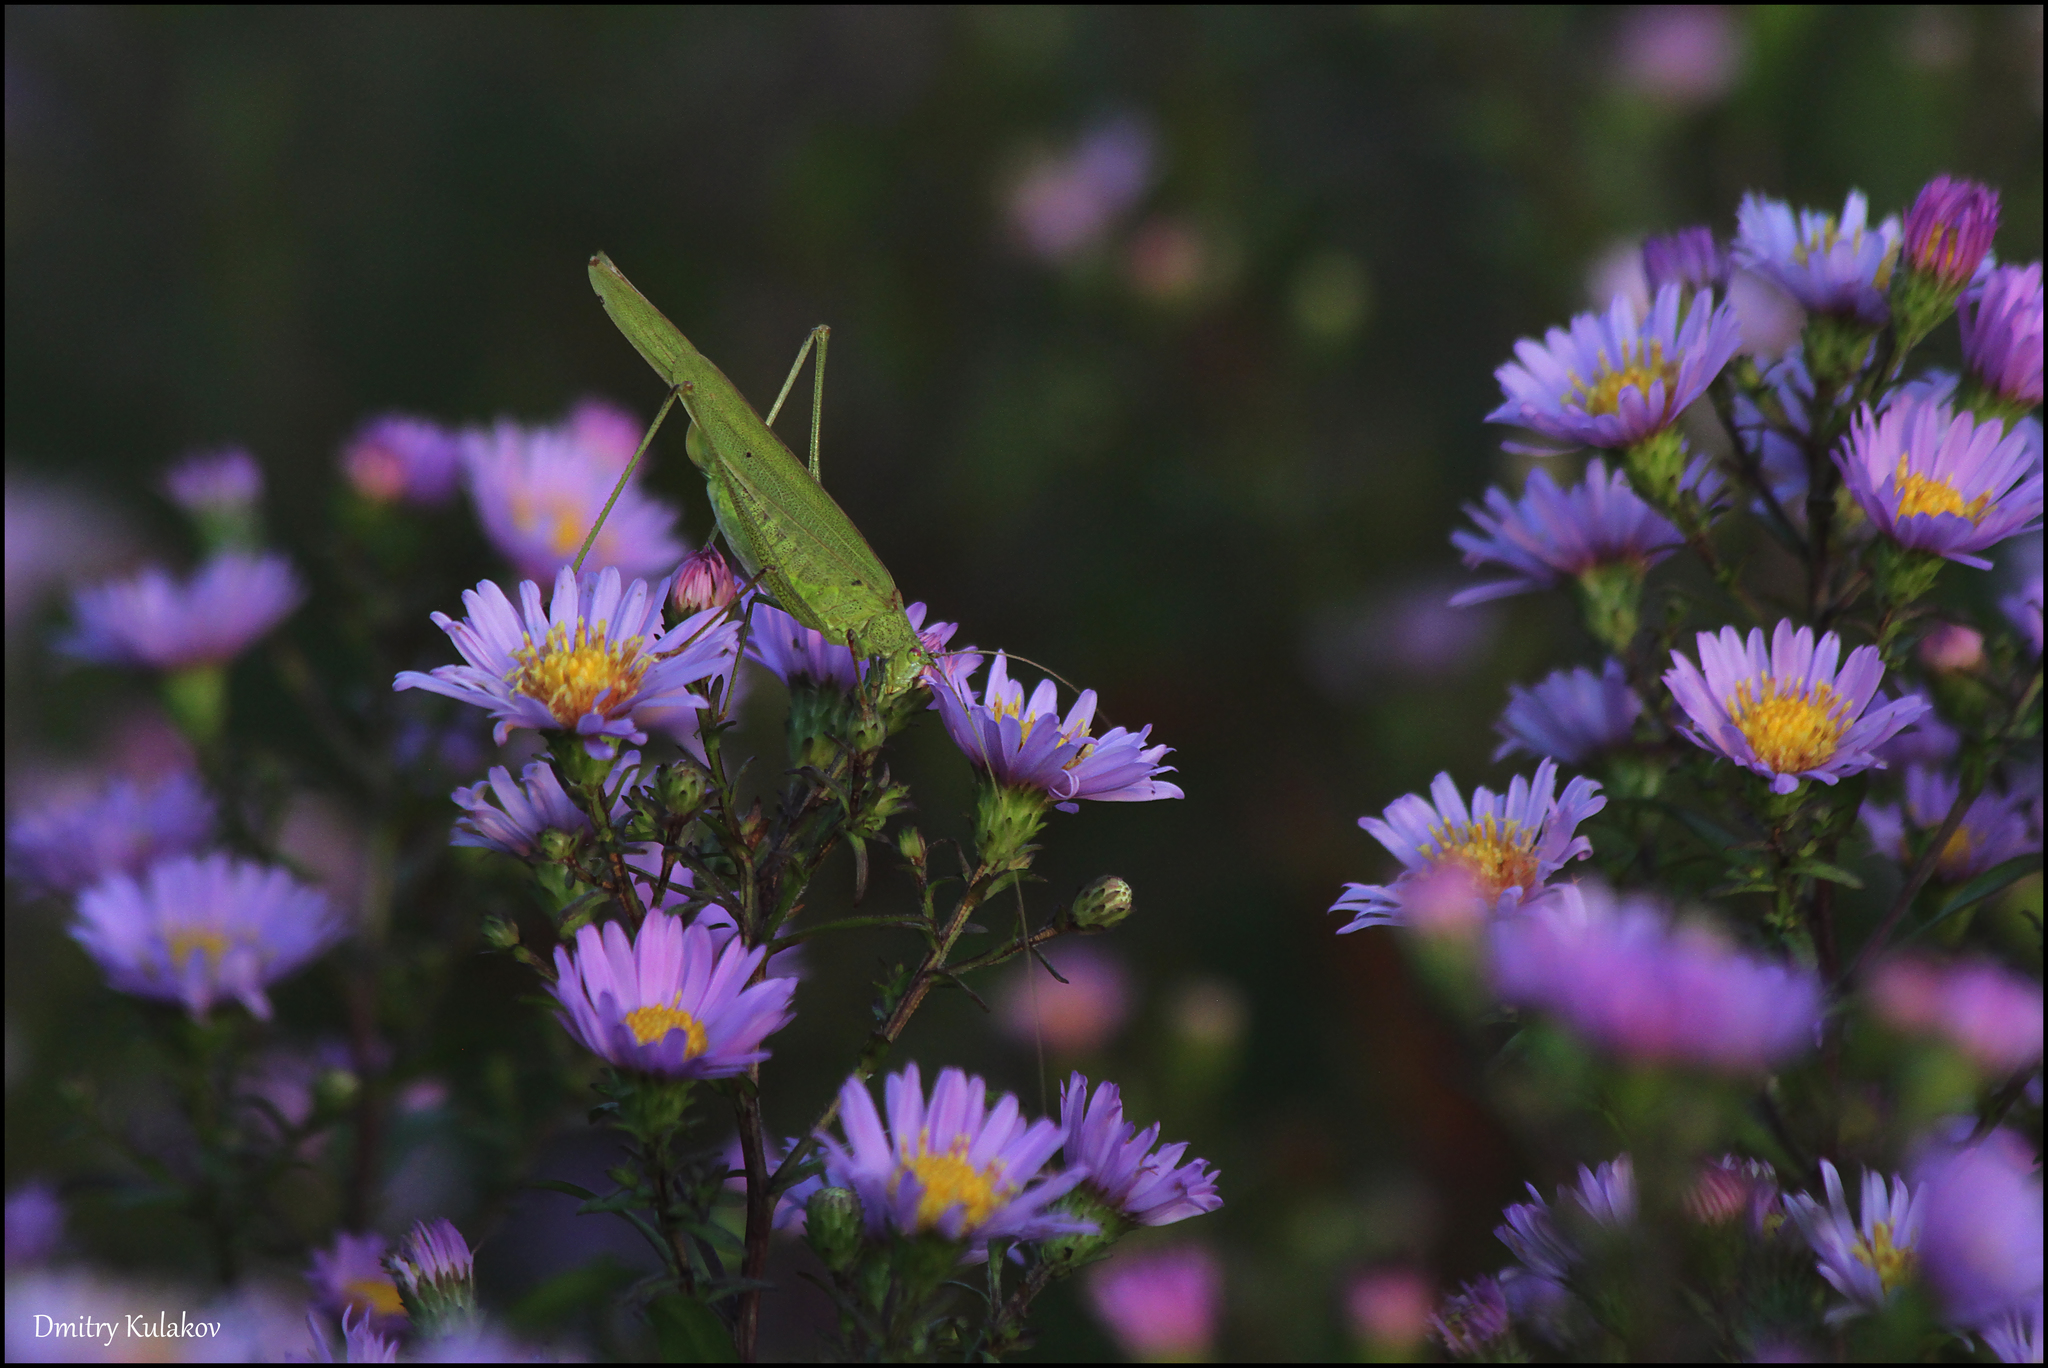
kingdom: Animalia
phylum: Arthropoda
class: Insecta
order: Orthoptera
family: Tettigoniidae
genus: Phaneroptera
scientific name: Phaneroptera falcata
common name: Sickle-bearing bush-cricket
